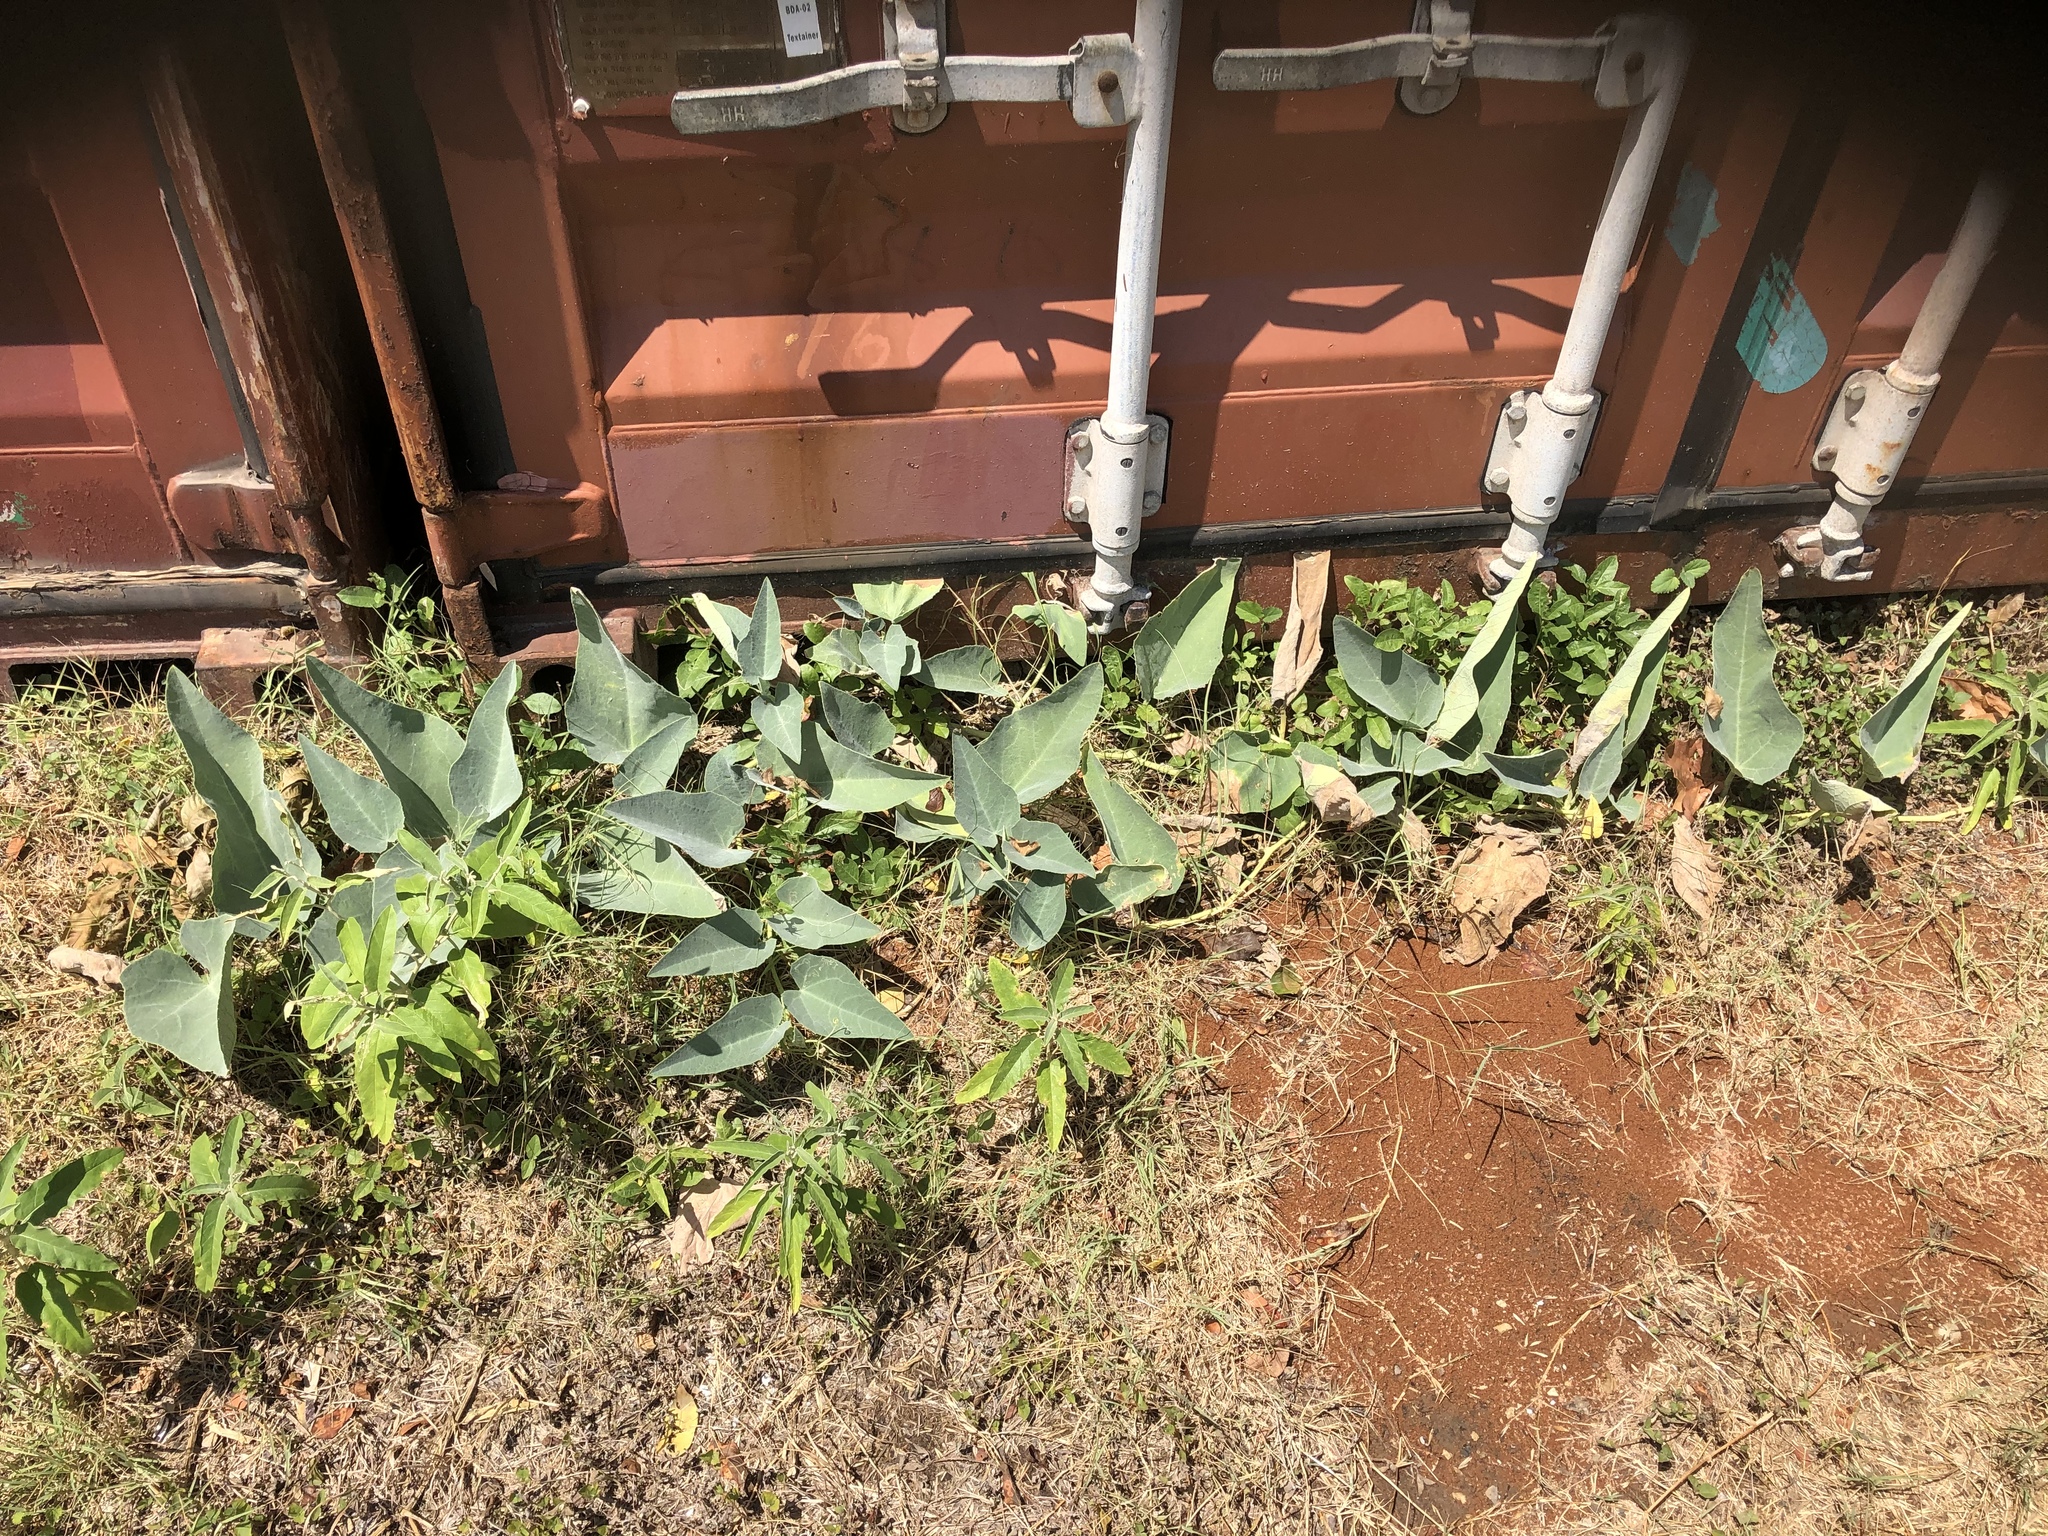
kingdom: Plantae
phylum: Tracheophyta
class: Magnoliopsida
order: Cucurbitales
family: Cucurbitaceae
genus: Cucurbita
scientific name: Cucurbita foetidissima
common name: Buffalo gourd
